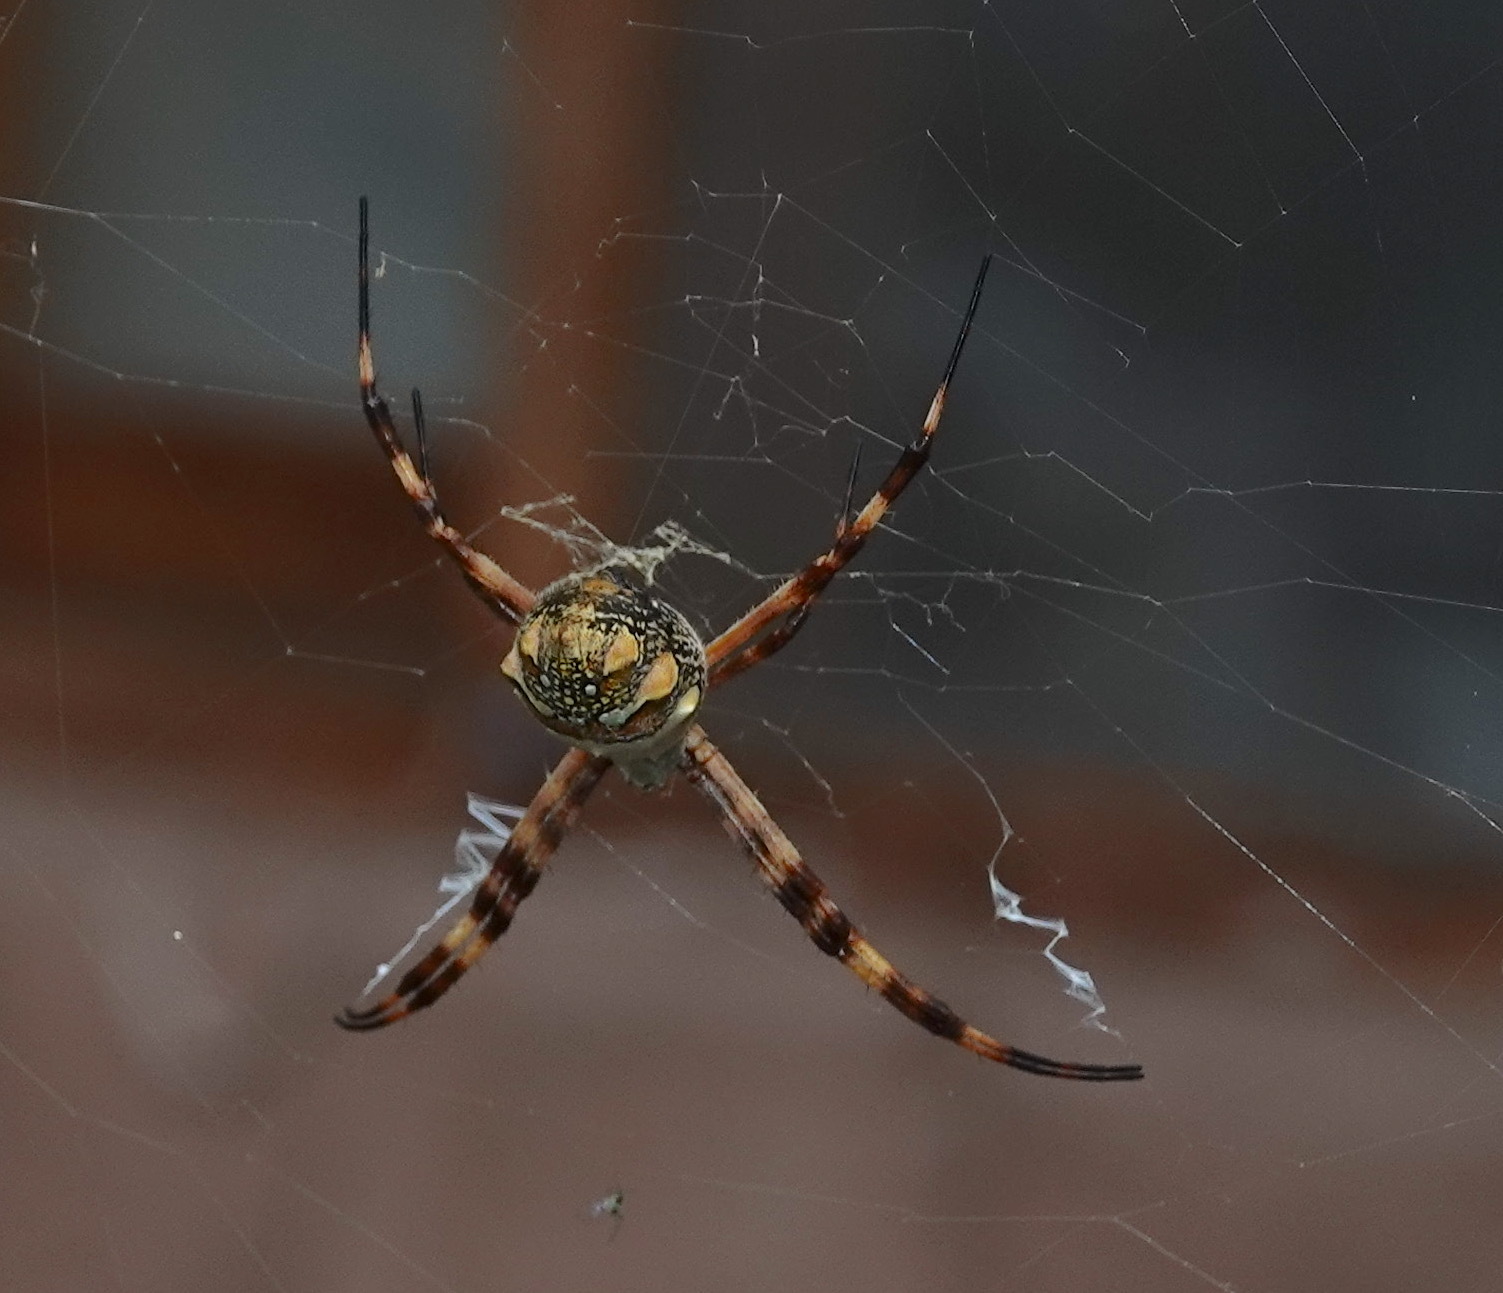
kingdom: Animalia
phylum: Arthropoda
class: Arachnida
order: Araneae
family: Araneidae
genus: Argiope
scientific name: Argiope argentata
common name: Orb weavers
